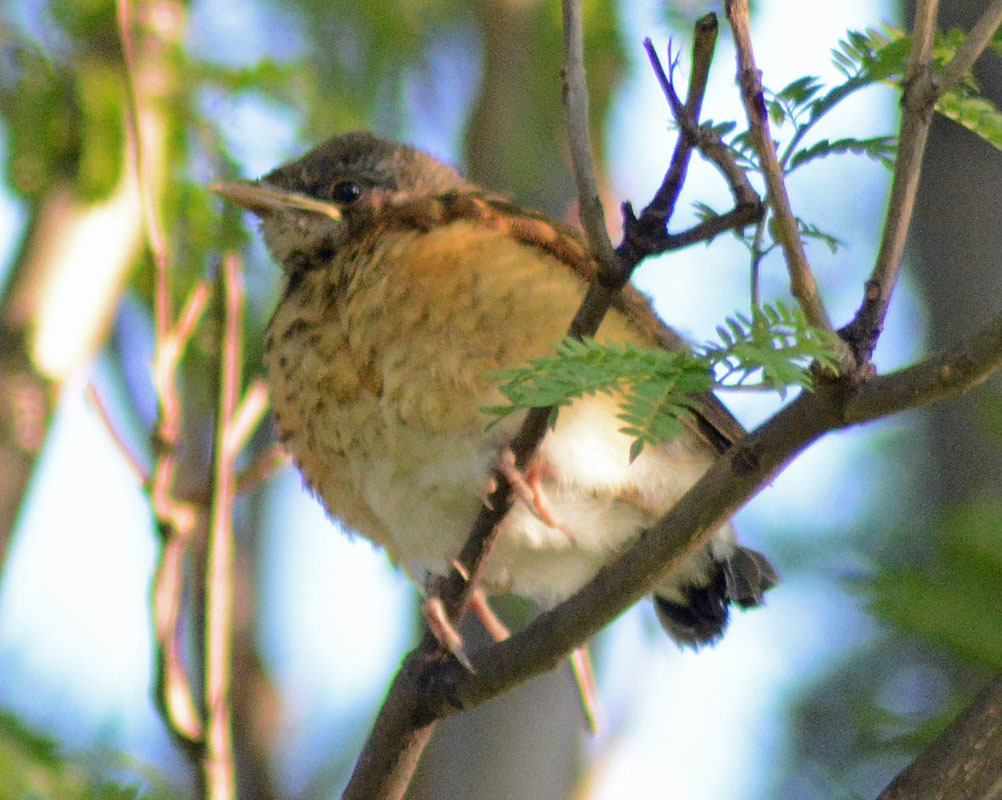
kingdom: Animalia
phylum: Chordata
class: Aves
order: Passeriformes
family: Turdidae
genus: Turdus
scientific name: Turdus rufopalliatus
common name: Rufous-backed robin
